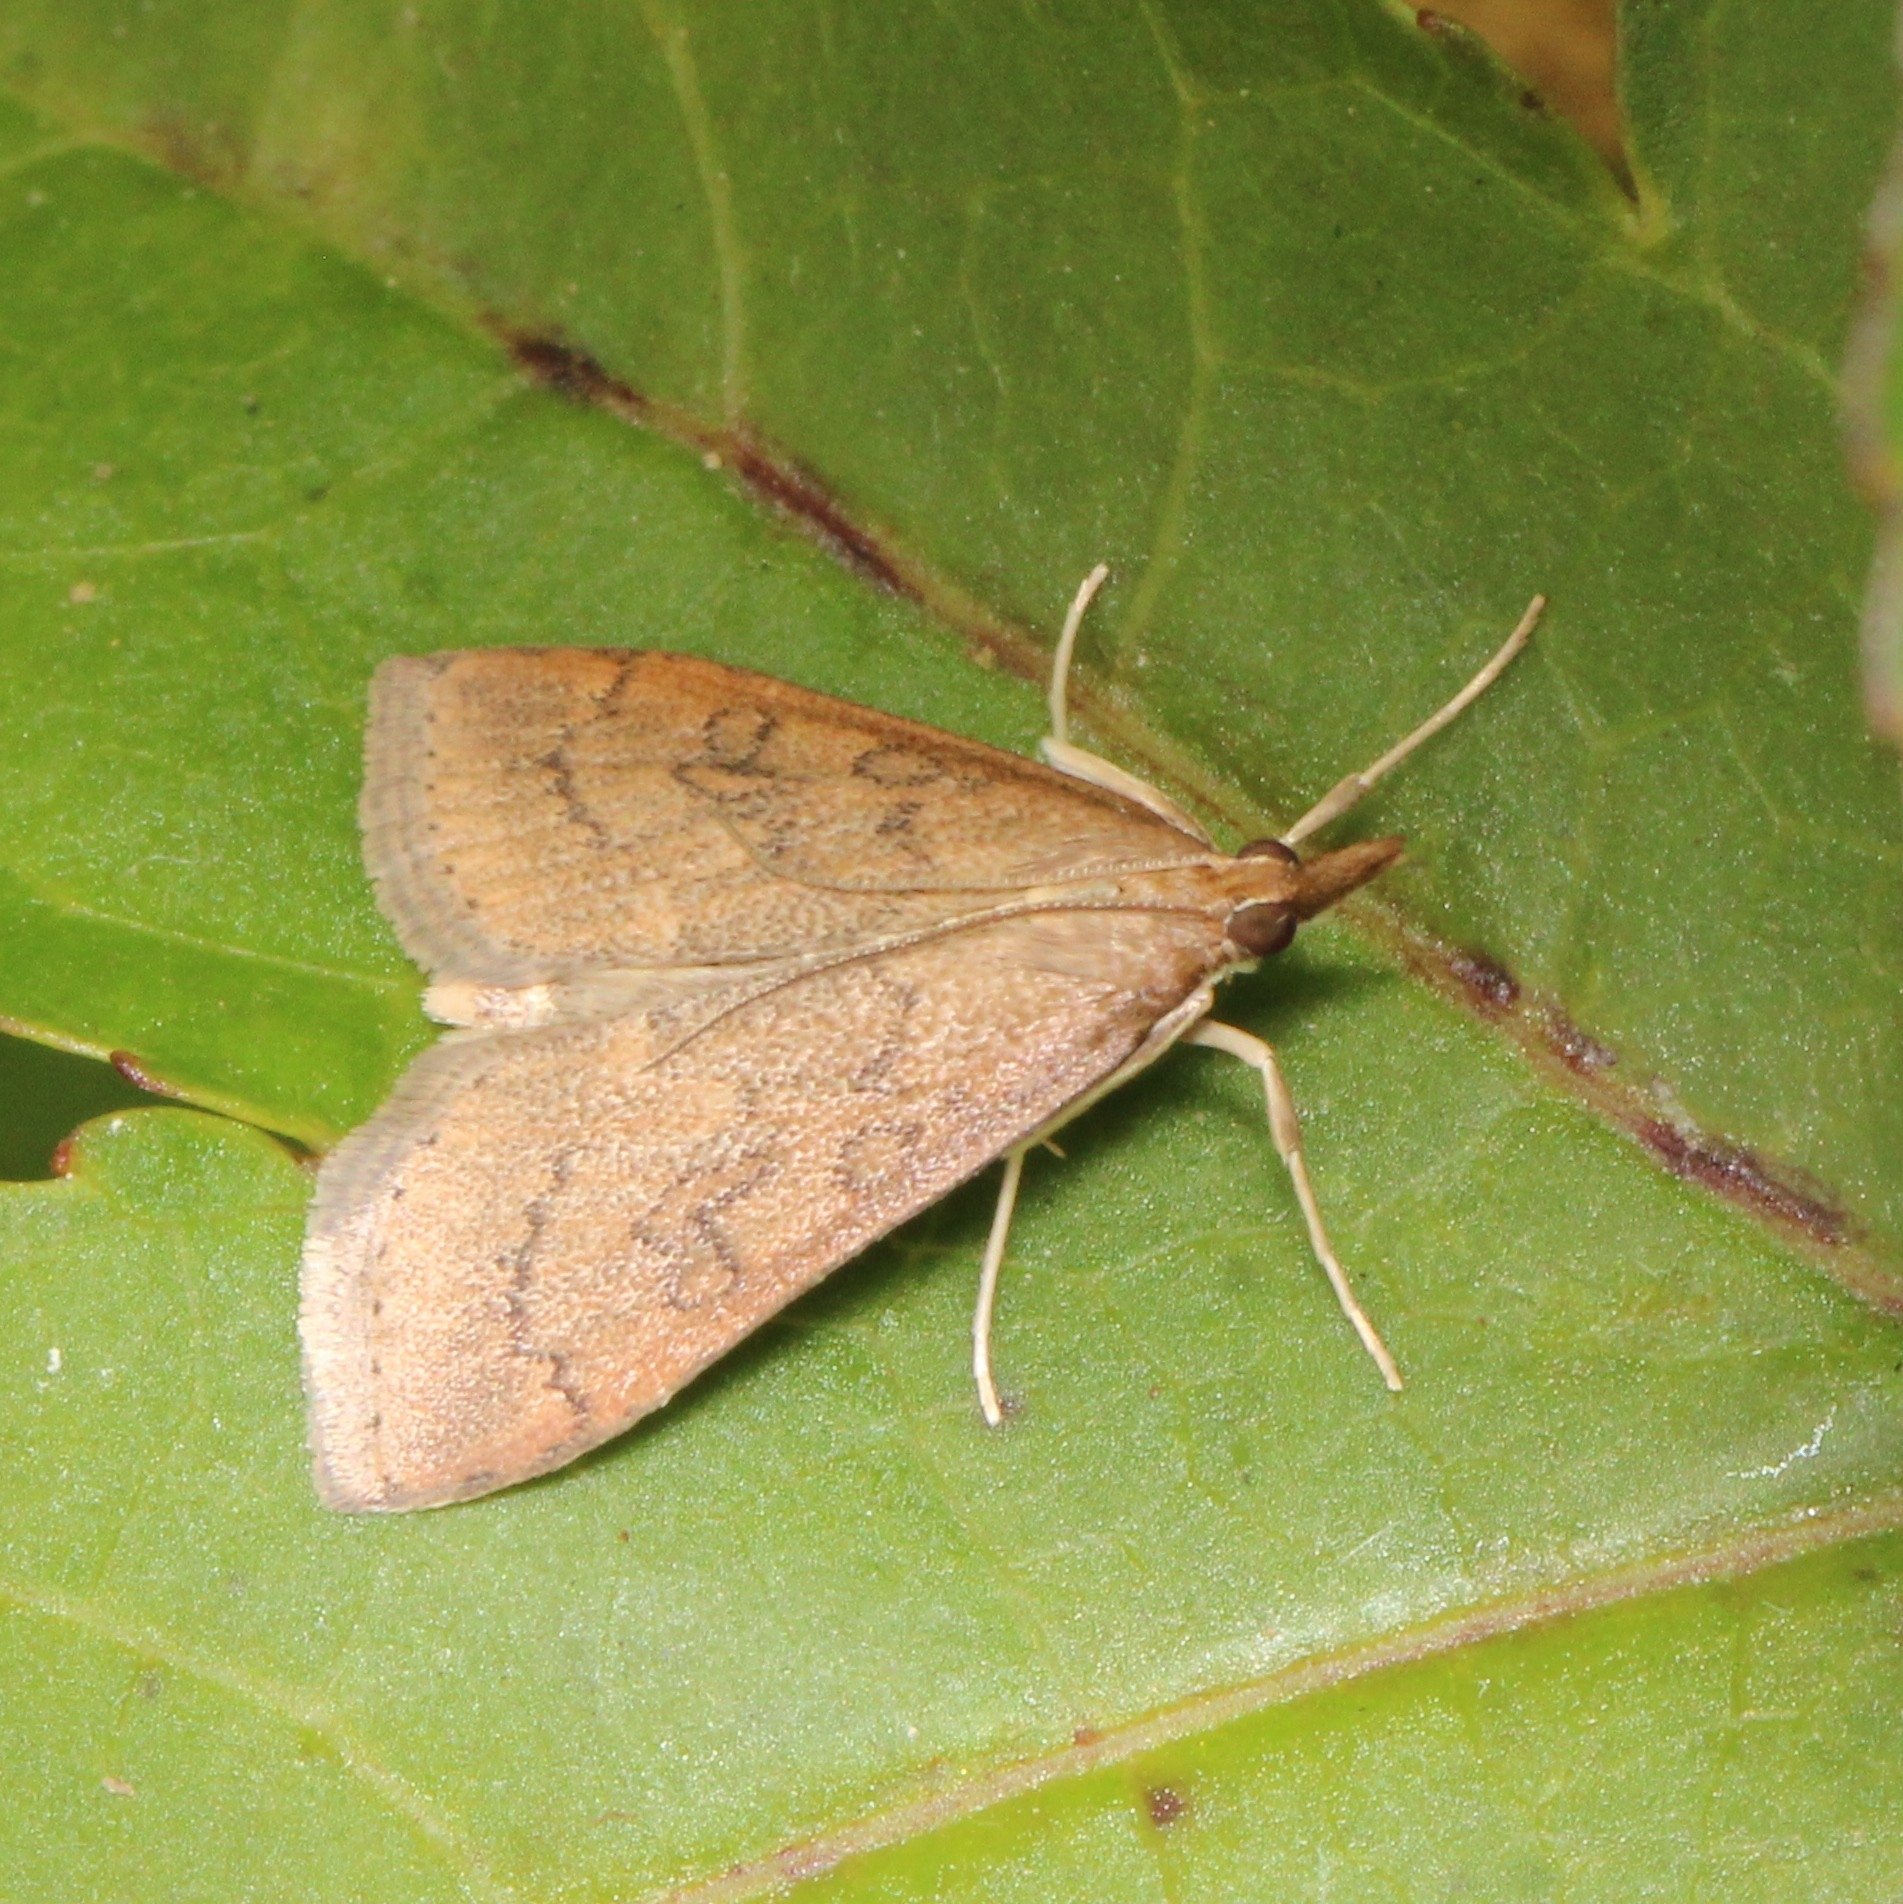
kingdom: Animalia
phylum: Arthropoda
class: Insecta
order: Lepidoptera
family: Crambidae
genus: Udea
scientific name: Udea rubigalis
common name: Celery leaftier moth
